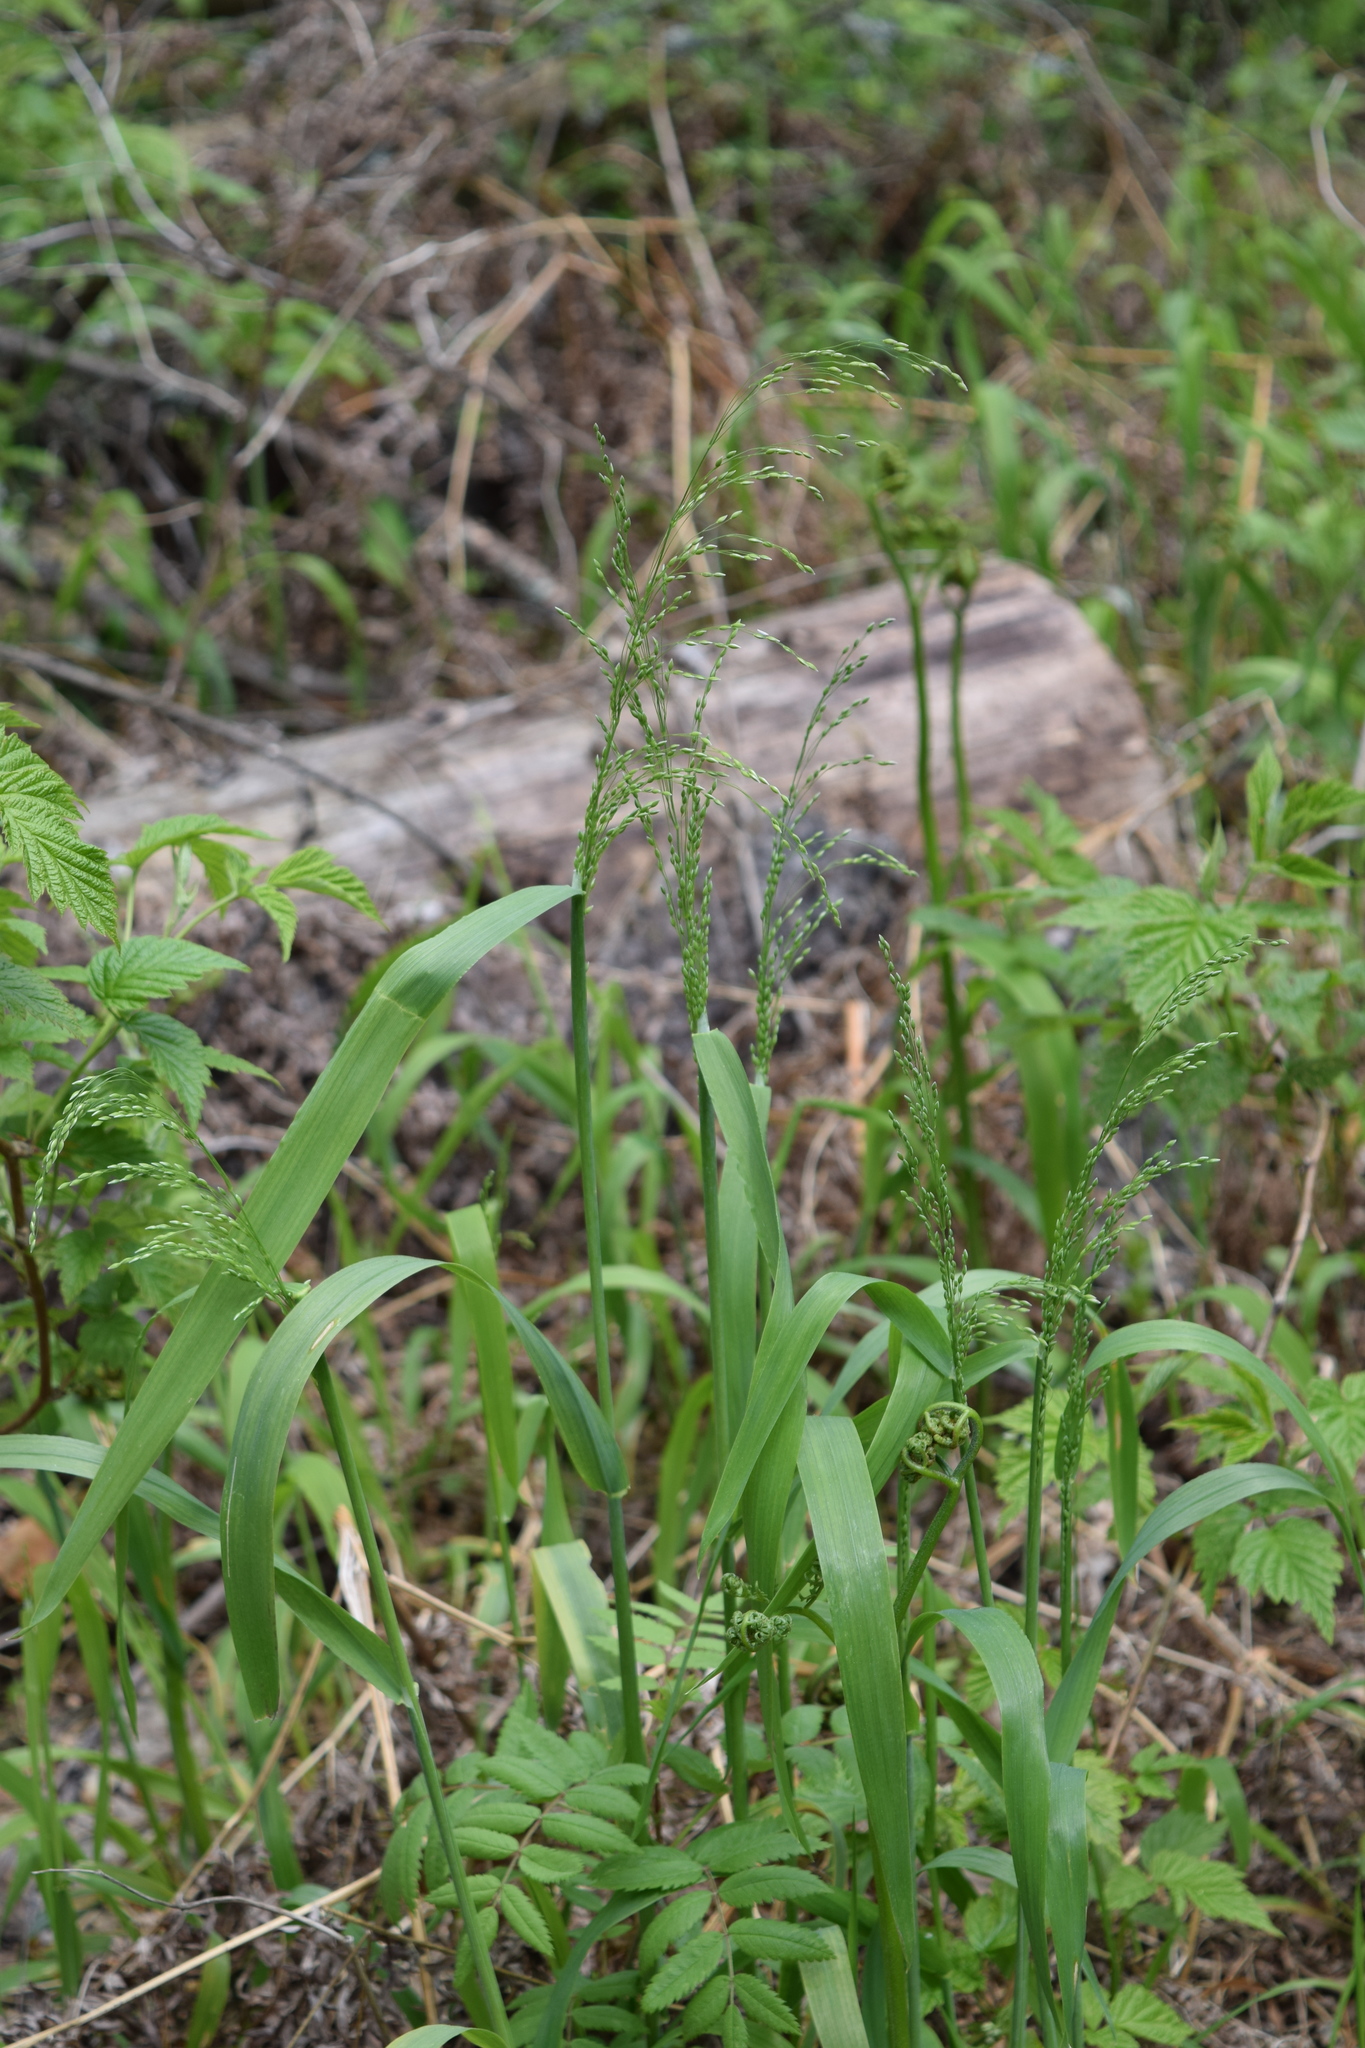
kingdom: Plantae
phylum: Tracheophyta
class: Liliopsida
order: Poales
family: Poaceae
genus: Milium
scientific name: Milium effusum
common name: Wood millet
